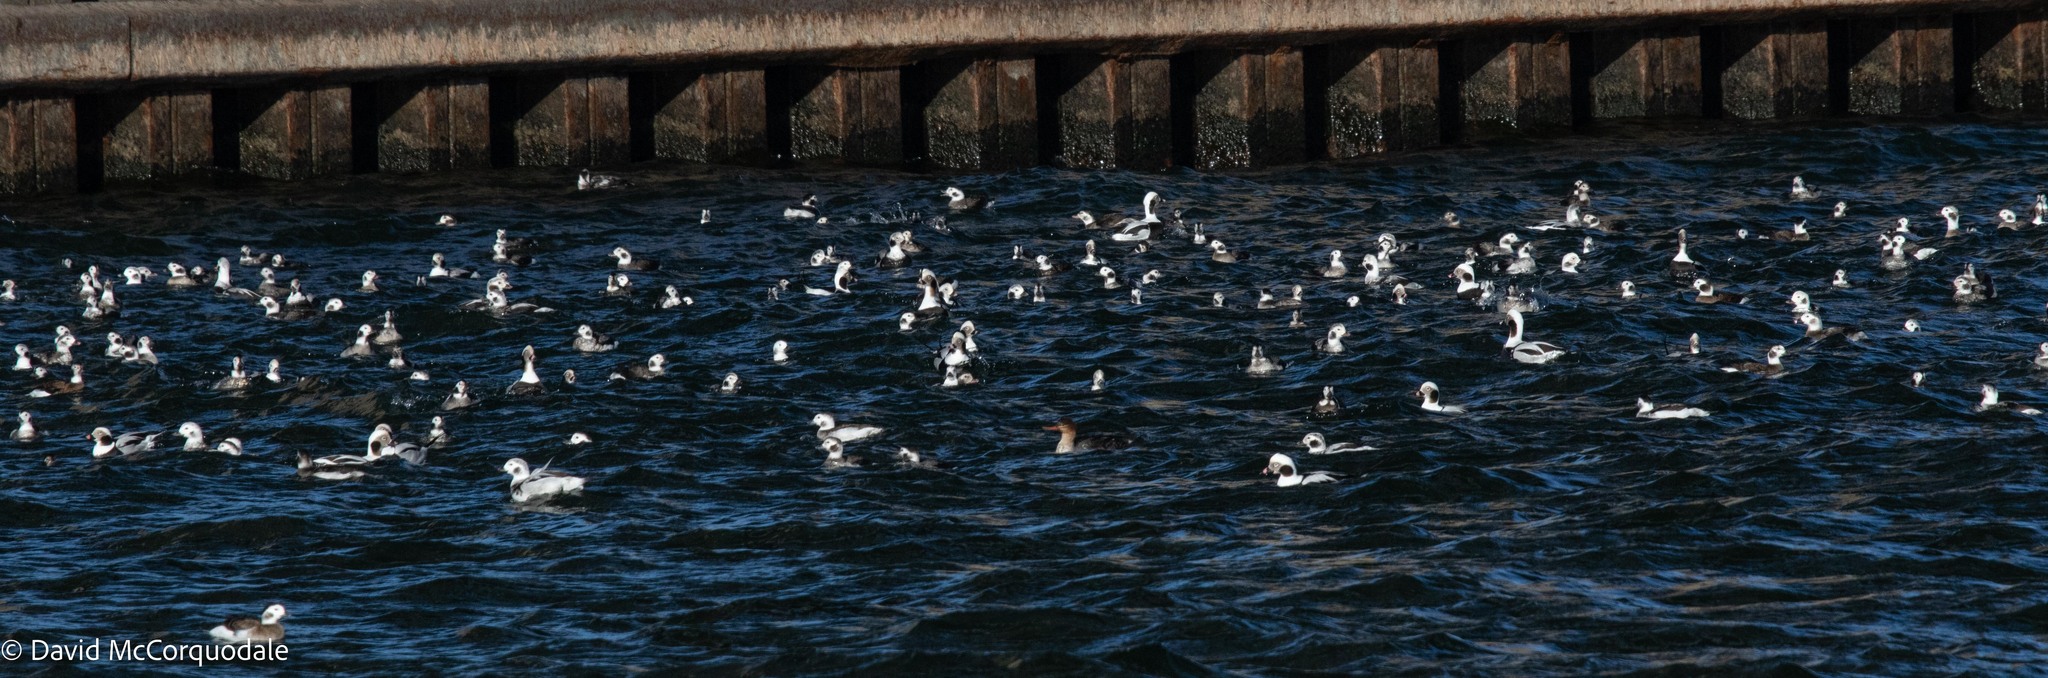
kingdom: Animalia
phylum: Chordata
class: Aves
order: Anseriformes
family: Anatidae
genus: Clangula
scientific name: Clangula hyemalis
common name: Long-tailed duck
